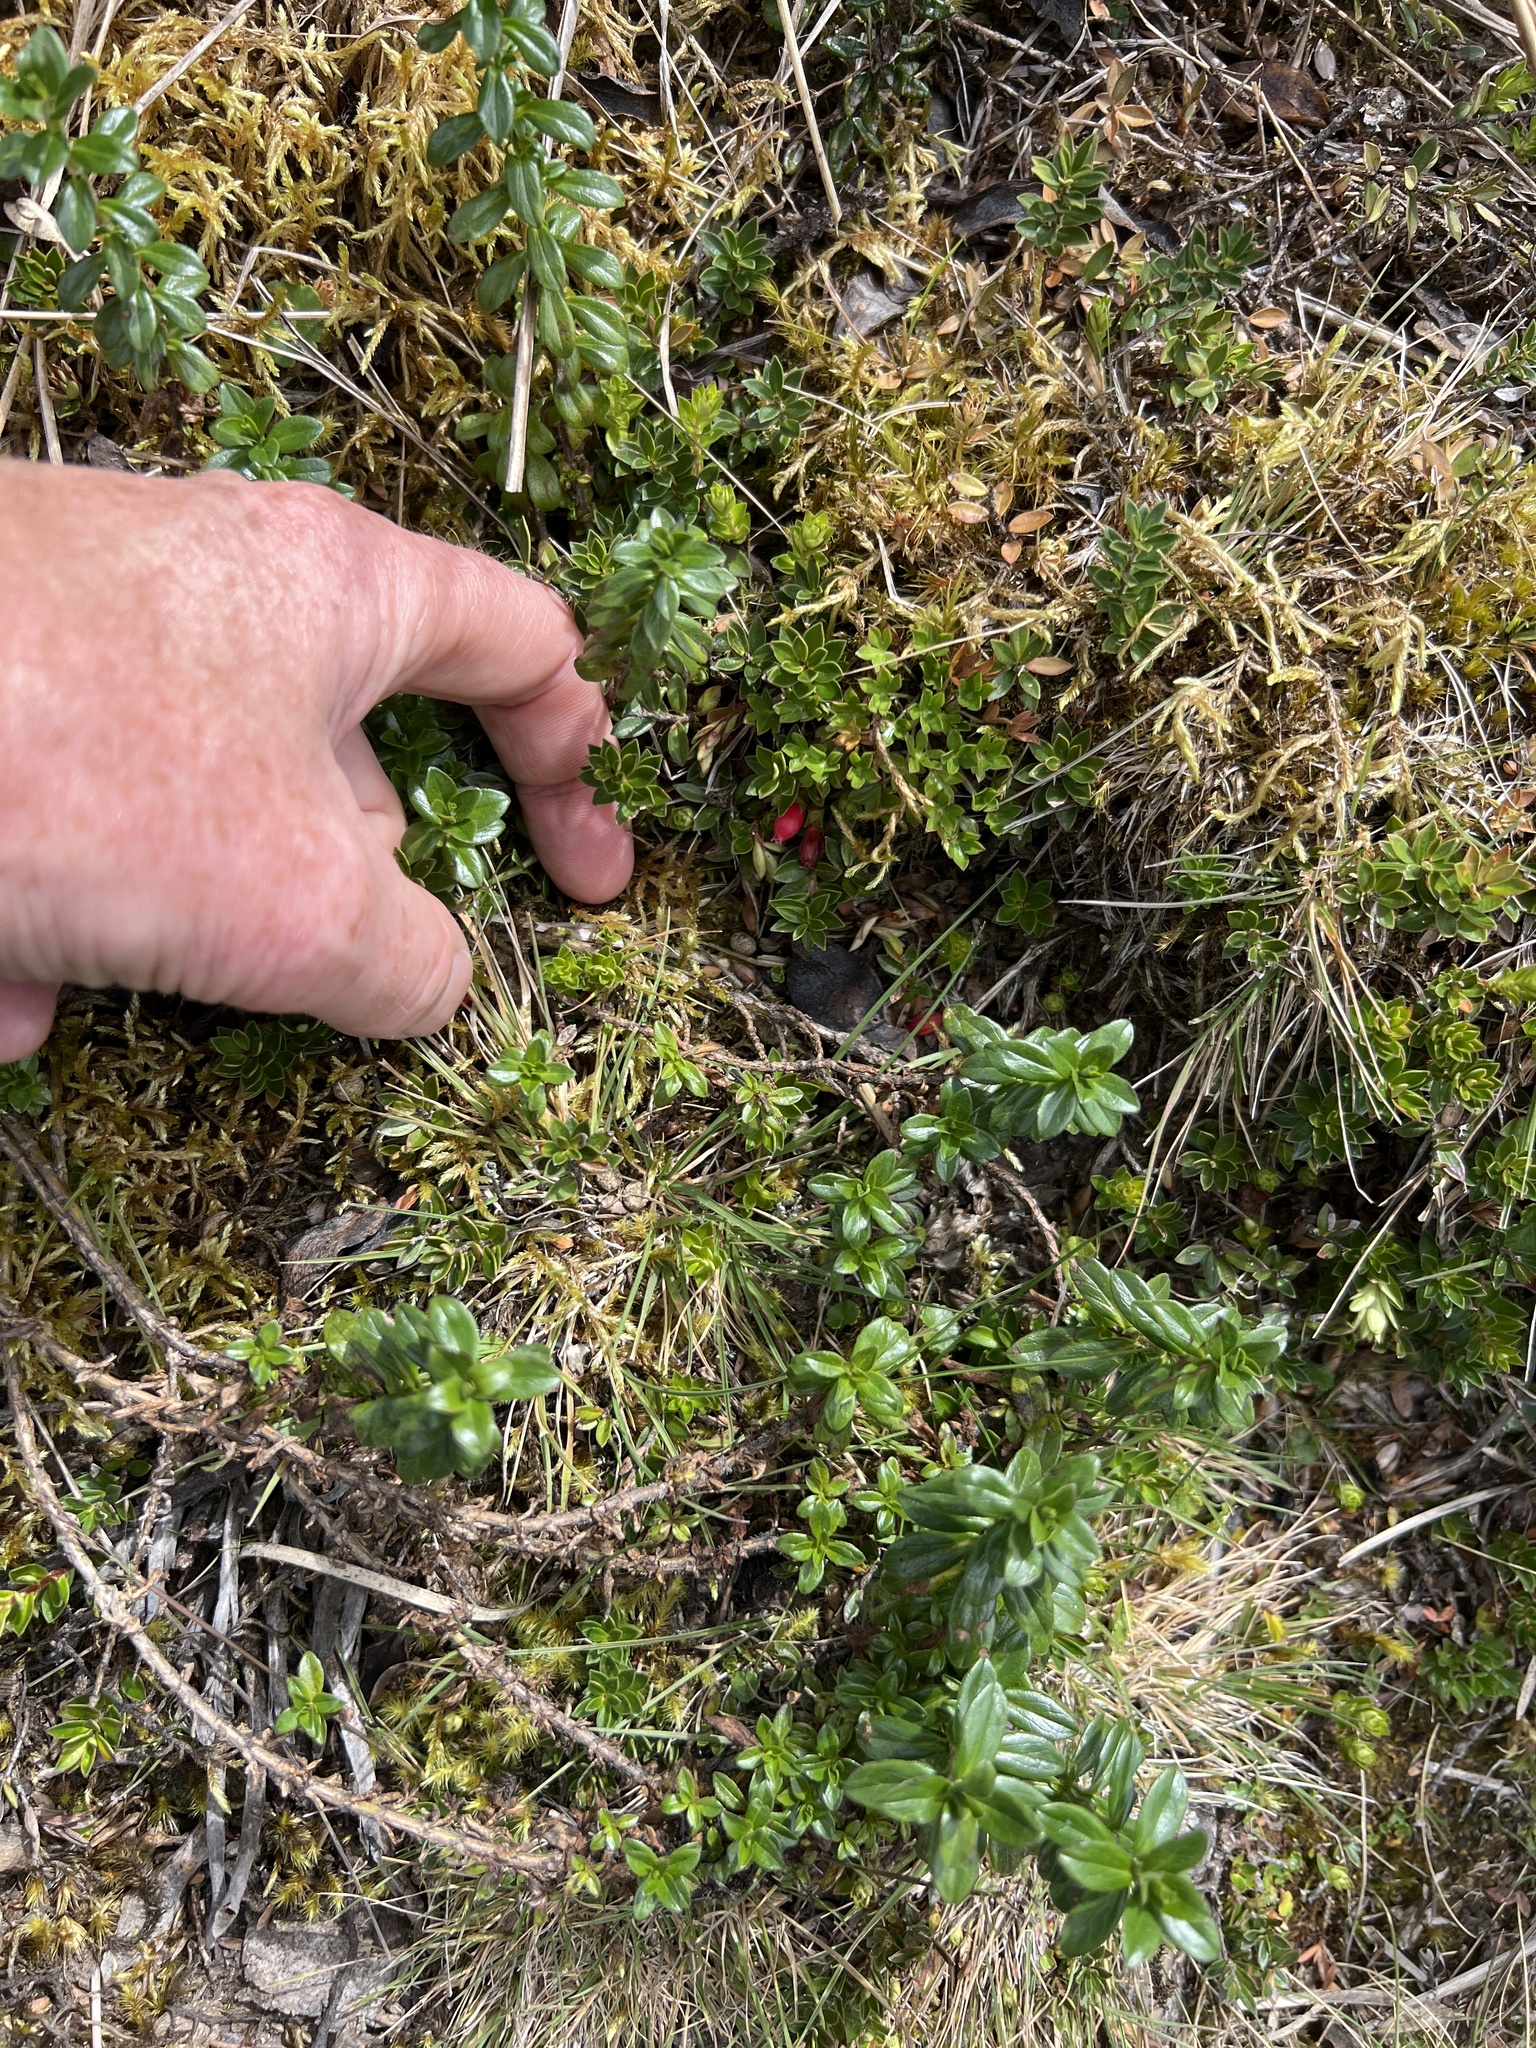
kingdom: Plantae
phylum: Tracheophyta
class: Magnoliopsida
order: Ericales
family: Ericaceae
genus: Disterigma
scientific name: Disterigma empetrifolium
